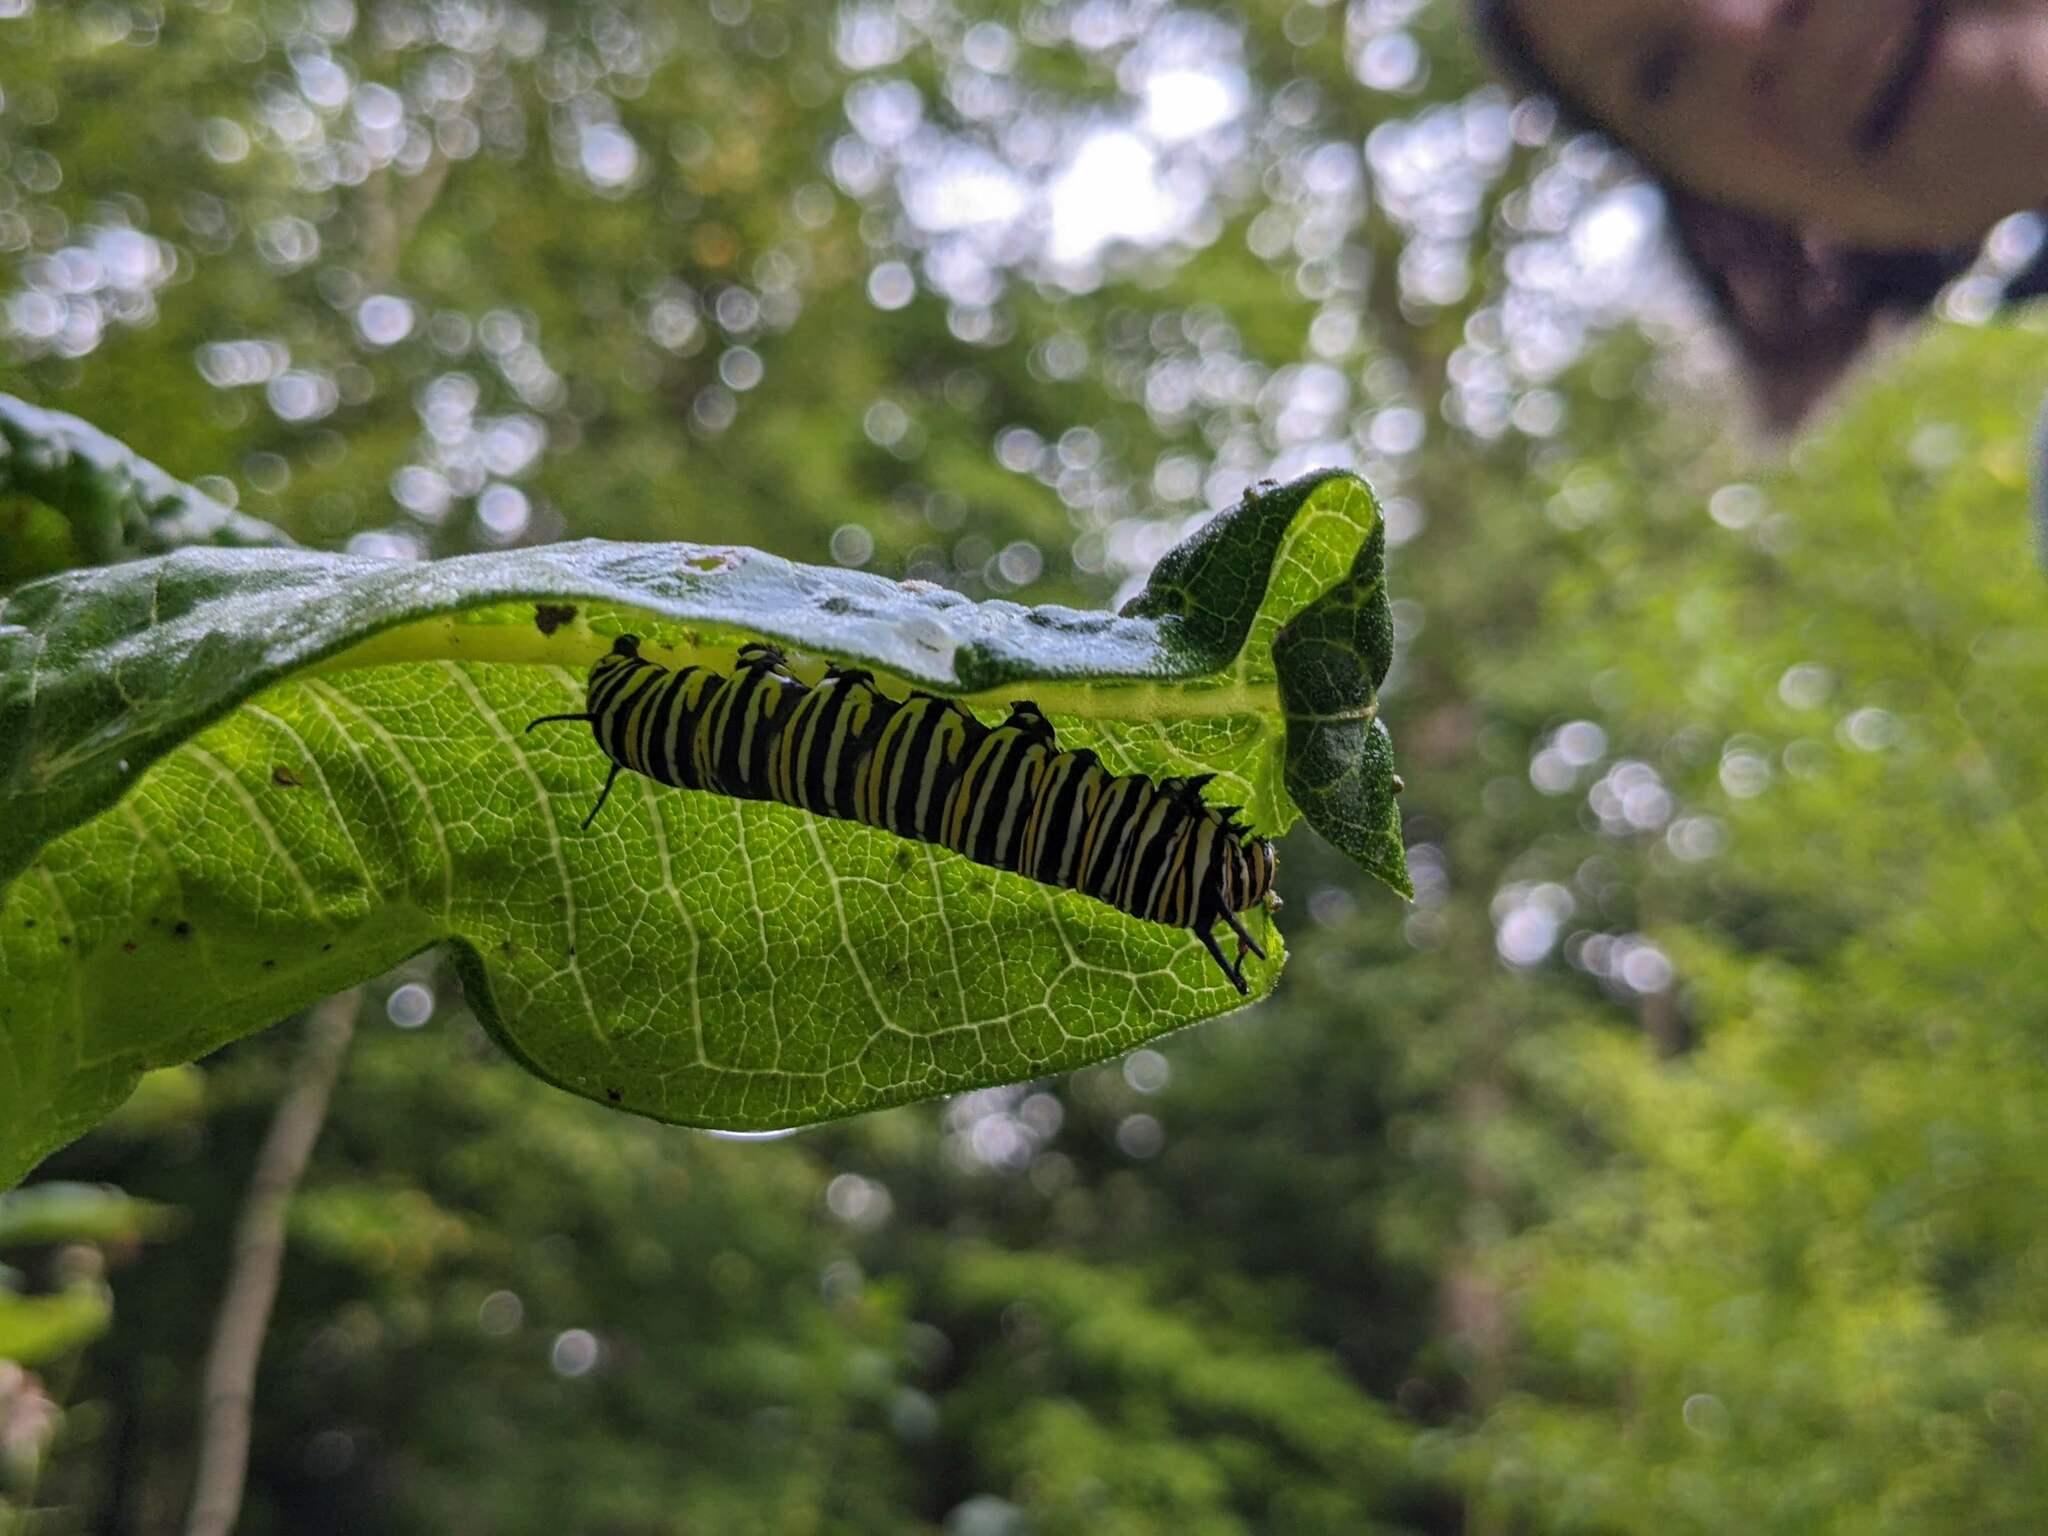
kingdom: Animalia
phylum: Arthropoda
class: Insecta
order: Lepidoptera
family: Nymphalidae
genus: Danaus
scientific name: Danaus plexippus
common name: Monarch
